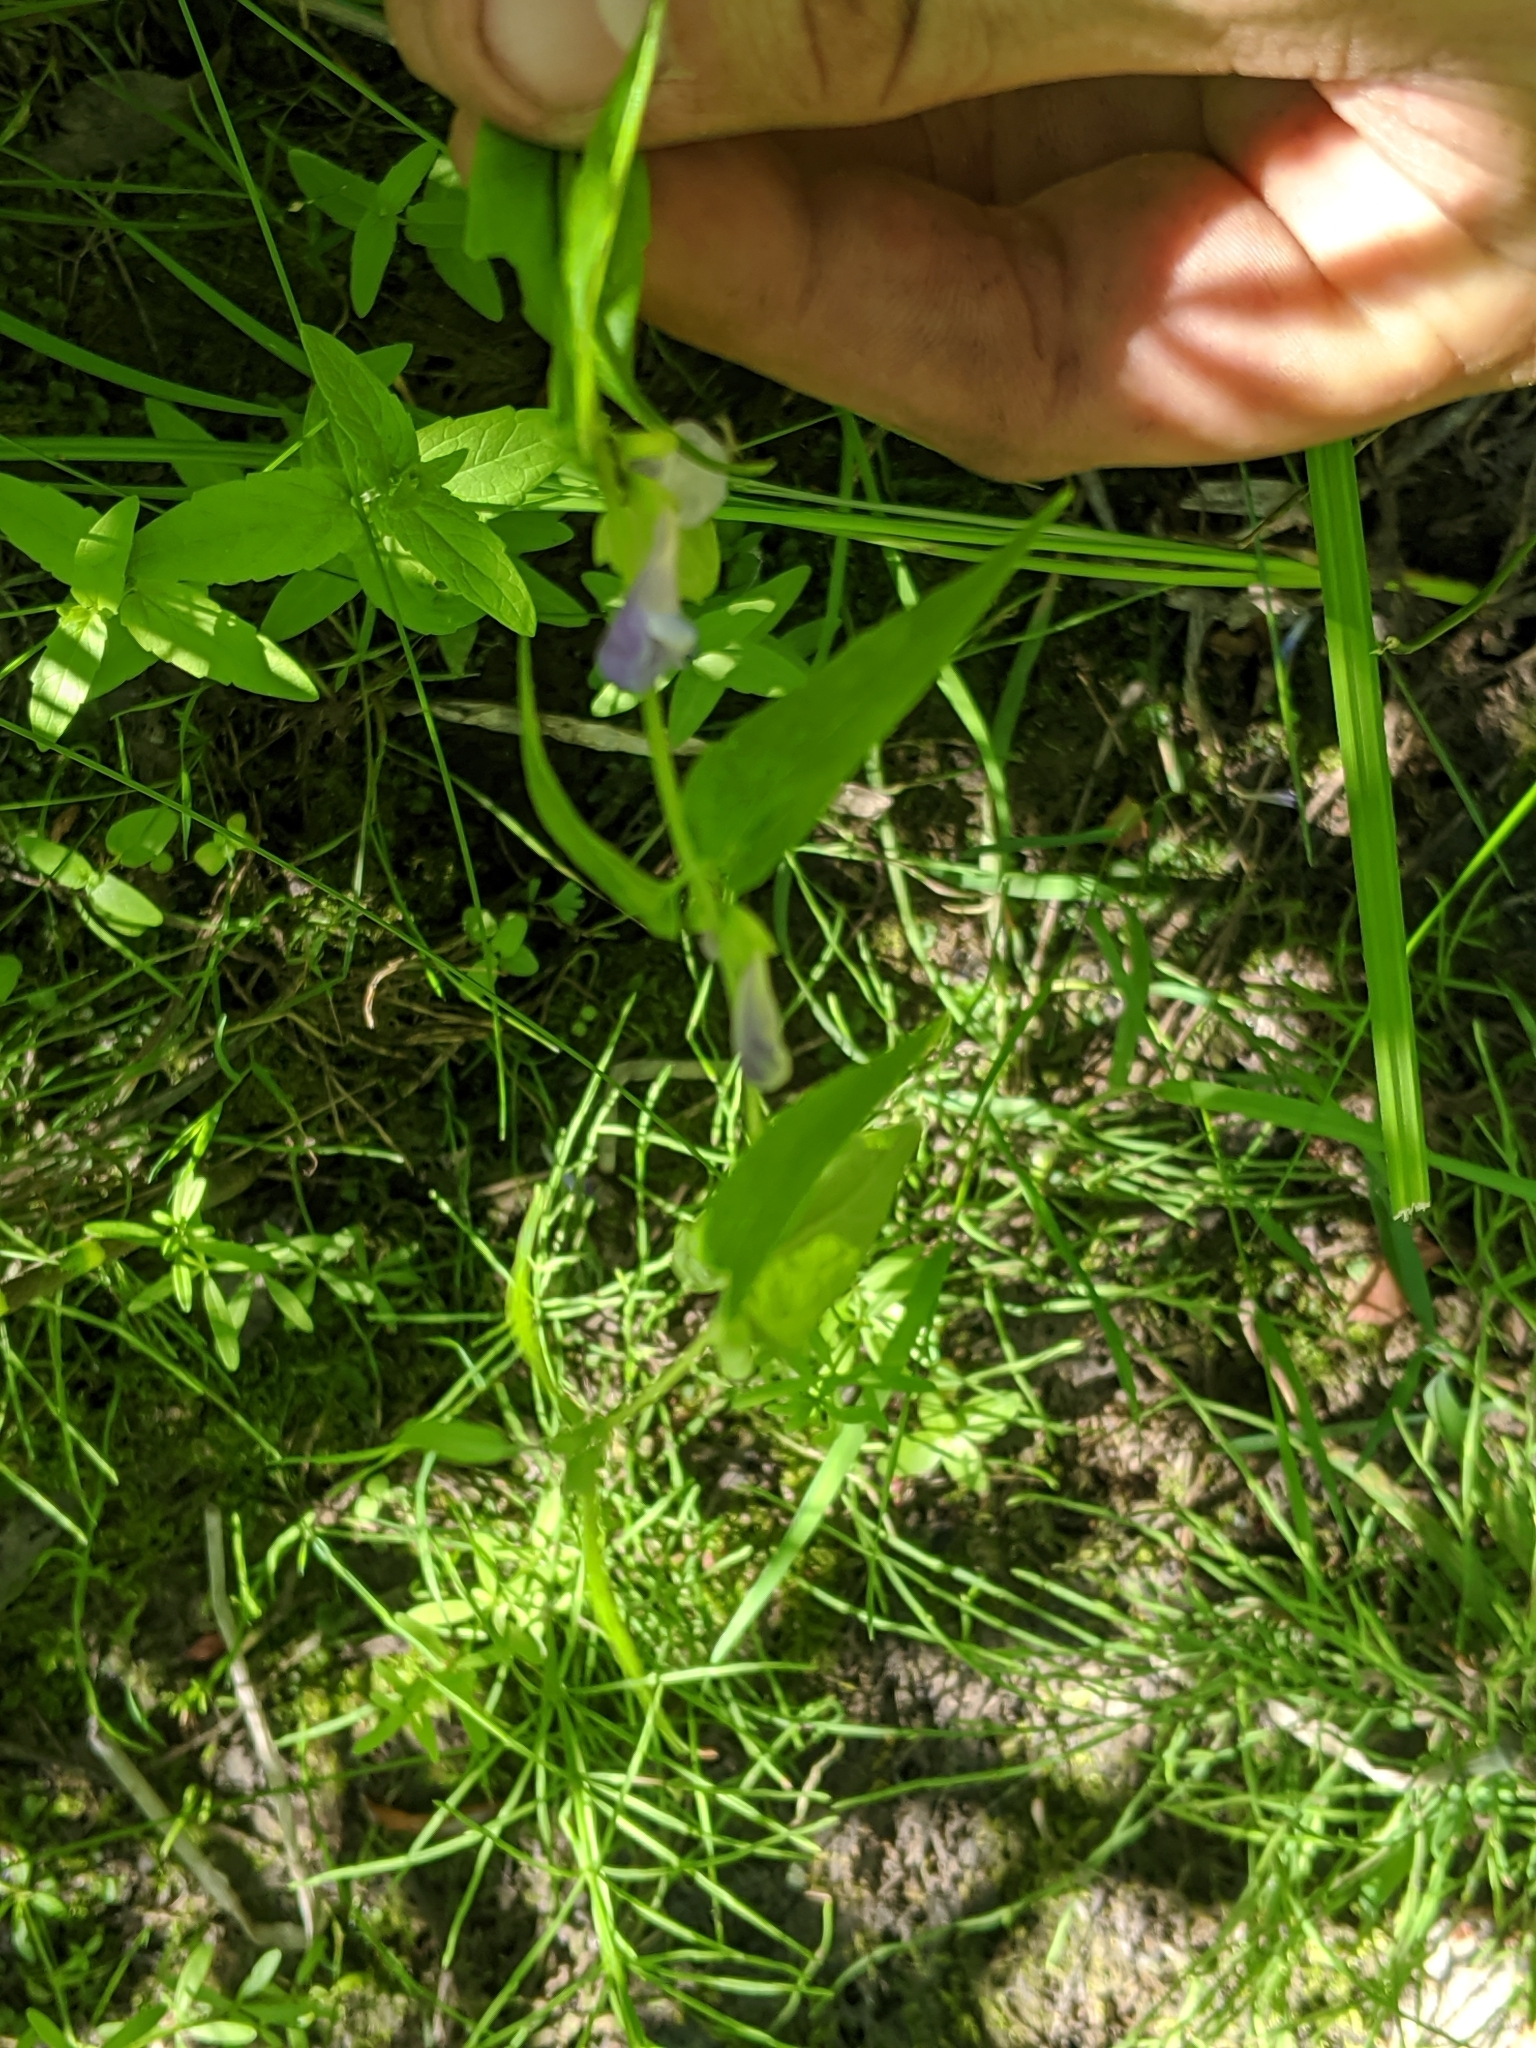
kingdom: Plantae
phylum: Tracheophyta
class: Magnoliopsida
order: Lamiales
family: Lamiaceae
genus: Scutellaria
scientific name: Scutellaria galericulata
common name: Skullcap
